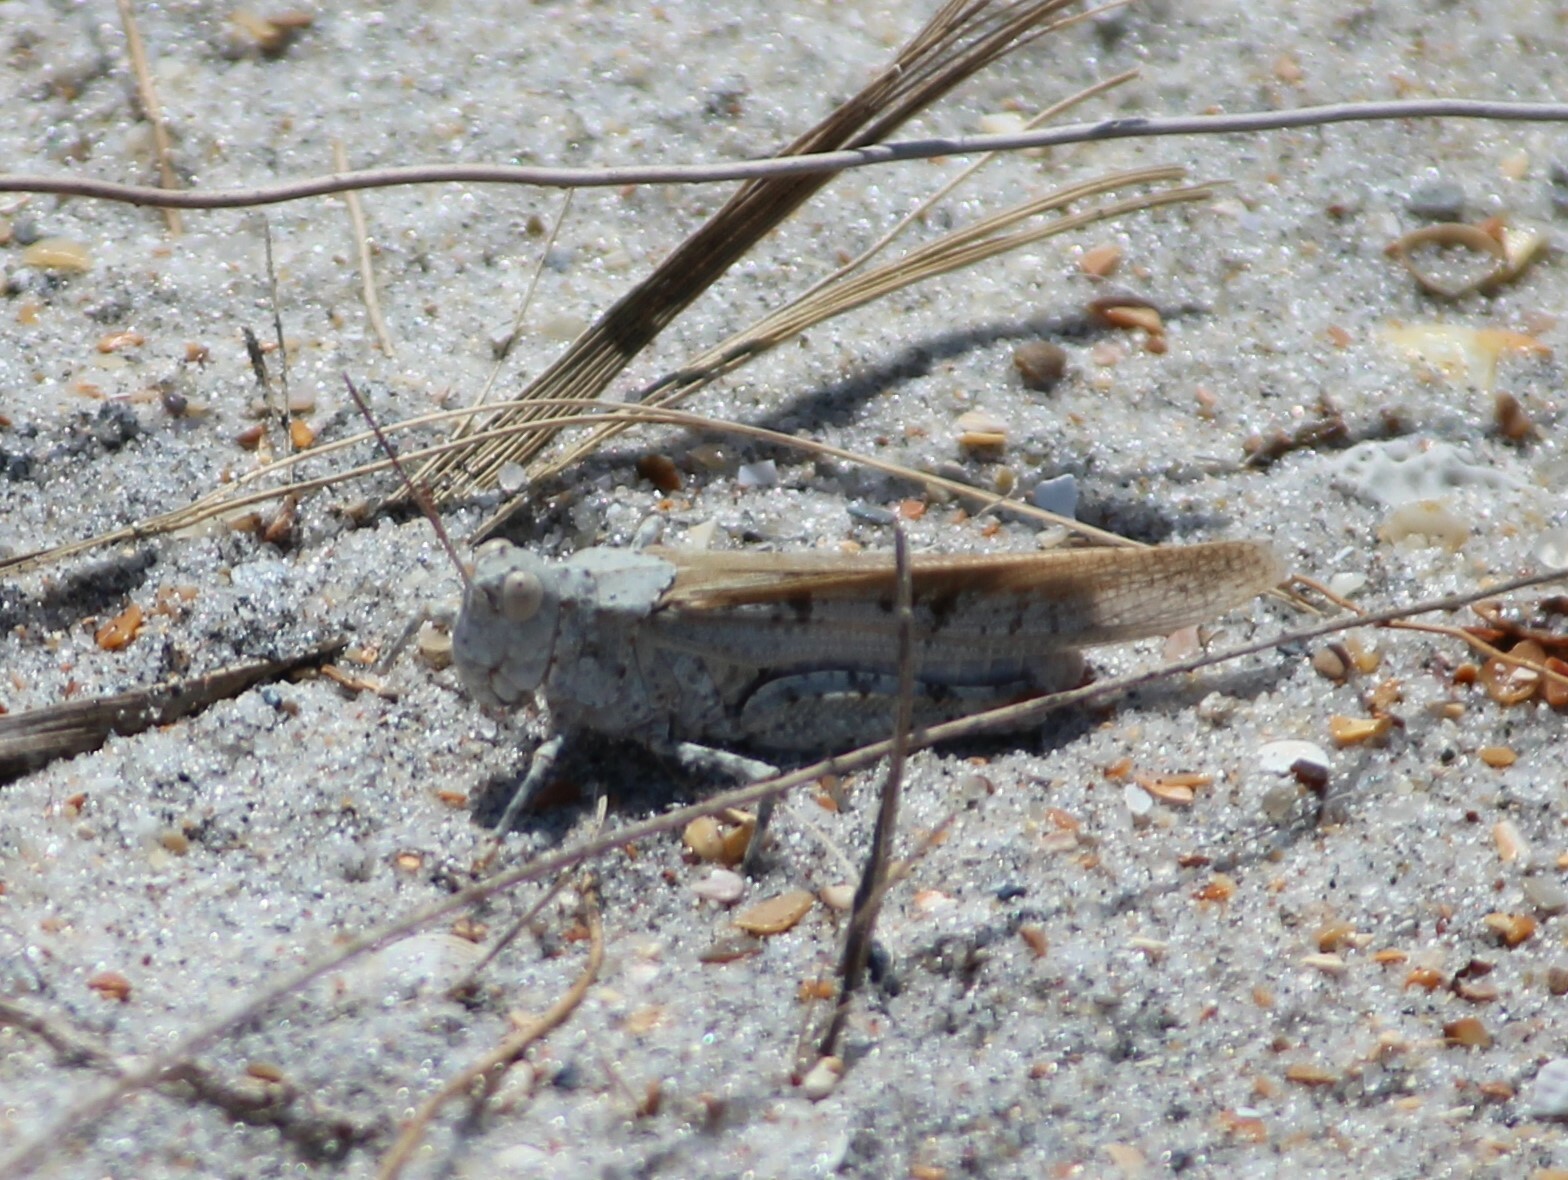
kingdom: Animalia
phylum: Arthropoda
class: Insecta
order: Orthoptera
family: Acrididae
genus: Trimerotropis
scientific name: Trimerotropis maritima
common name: Seaside locust
